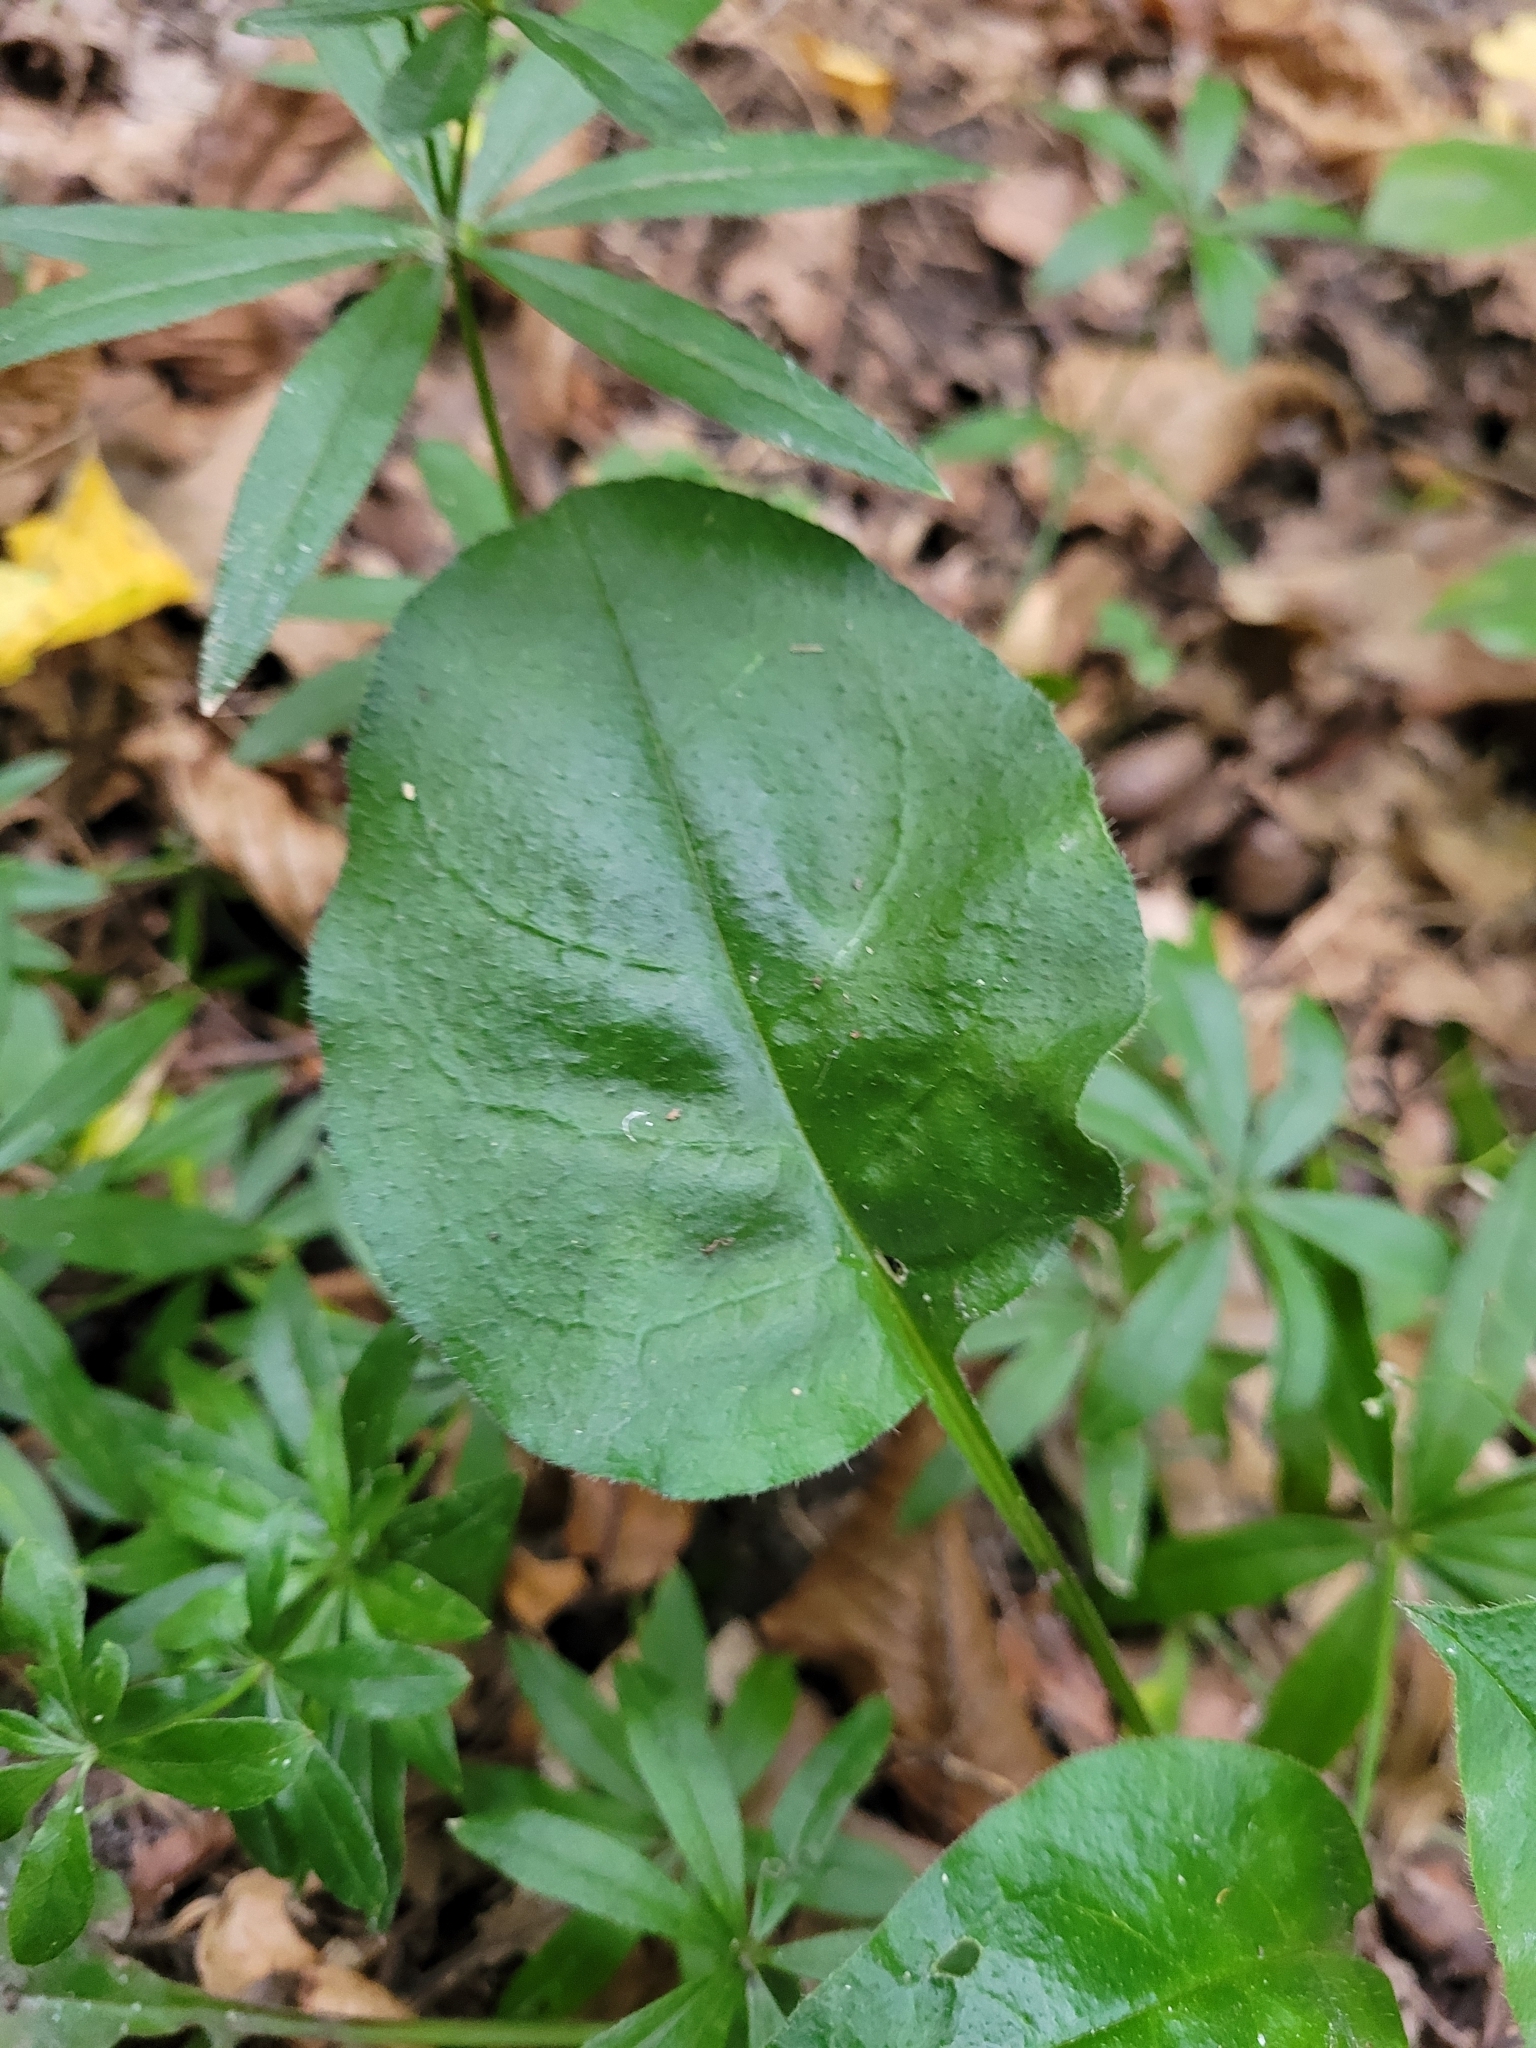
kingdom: Plantae
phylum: Tracheophyta
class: Magnoliopsida
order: Boraginales
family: Boraginaceae
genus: Pulmonaria
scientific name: Pulmonaria obscura
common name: Suffolk lungwort
